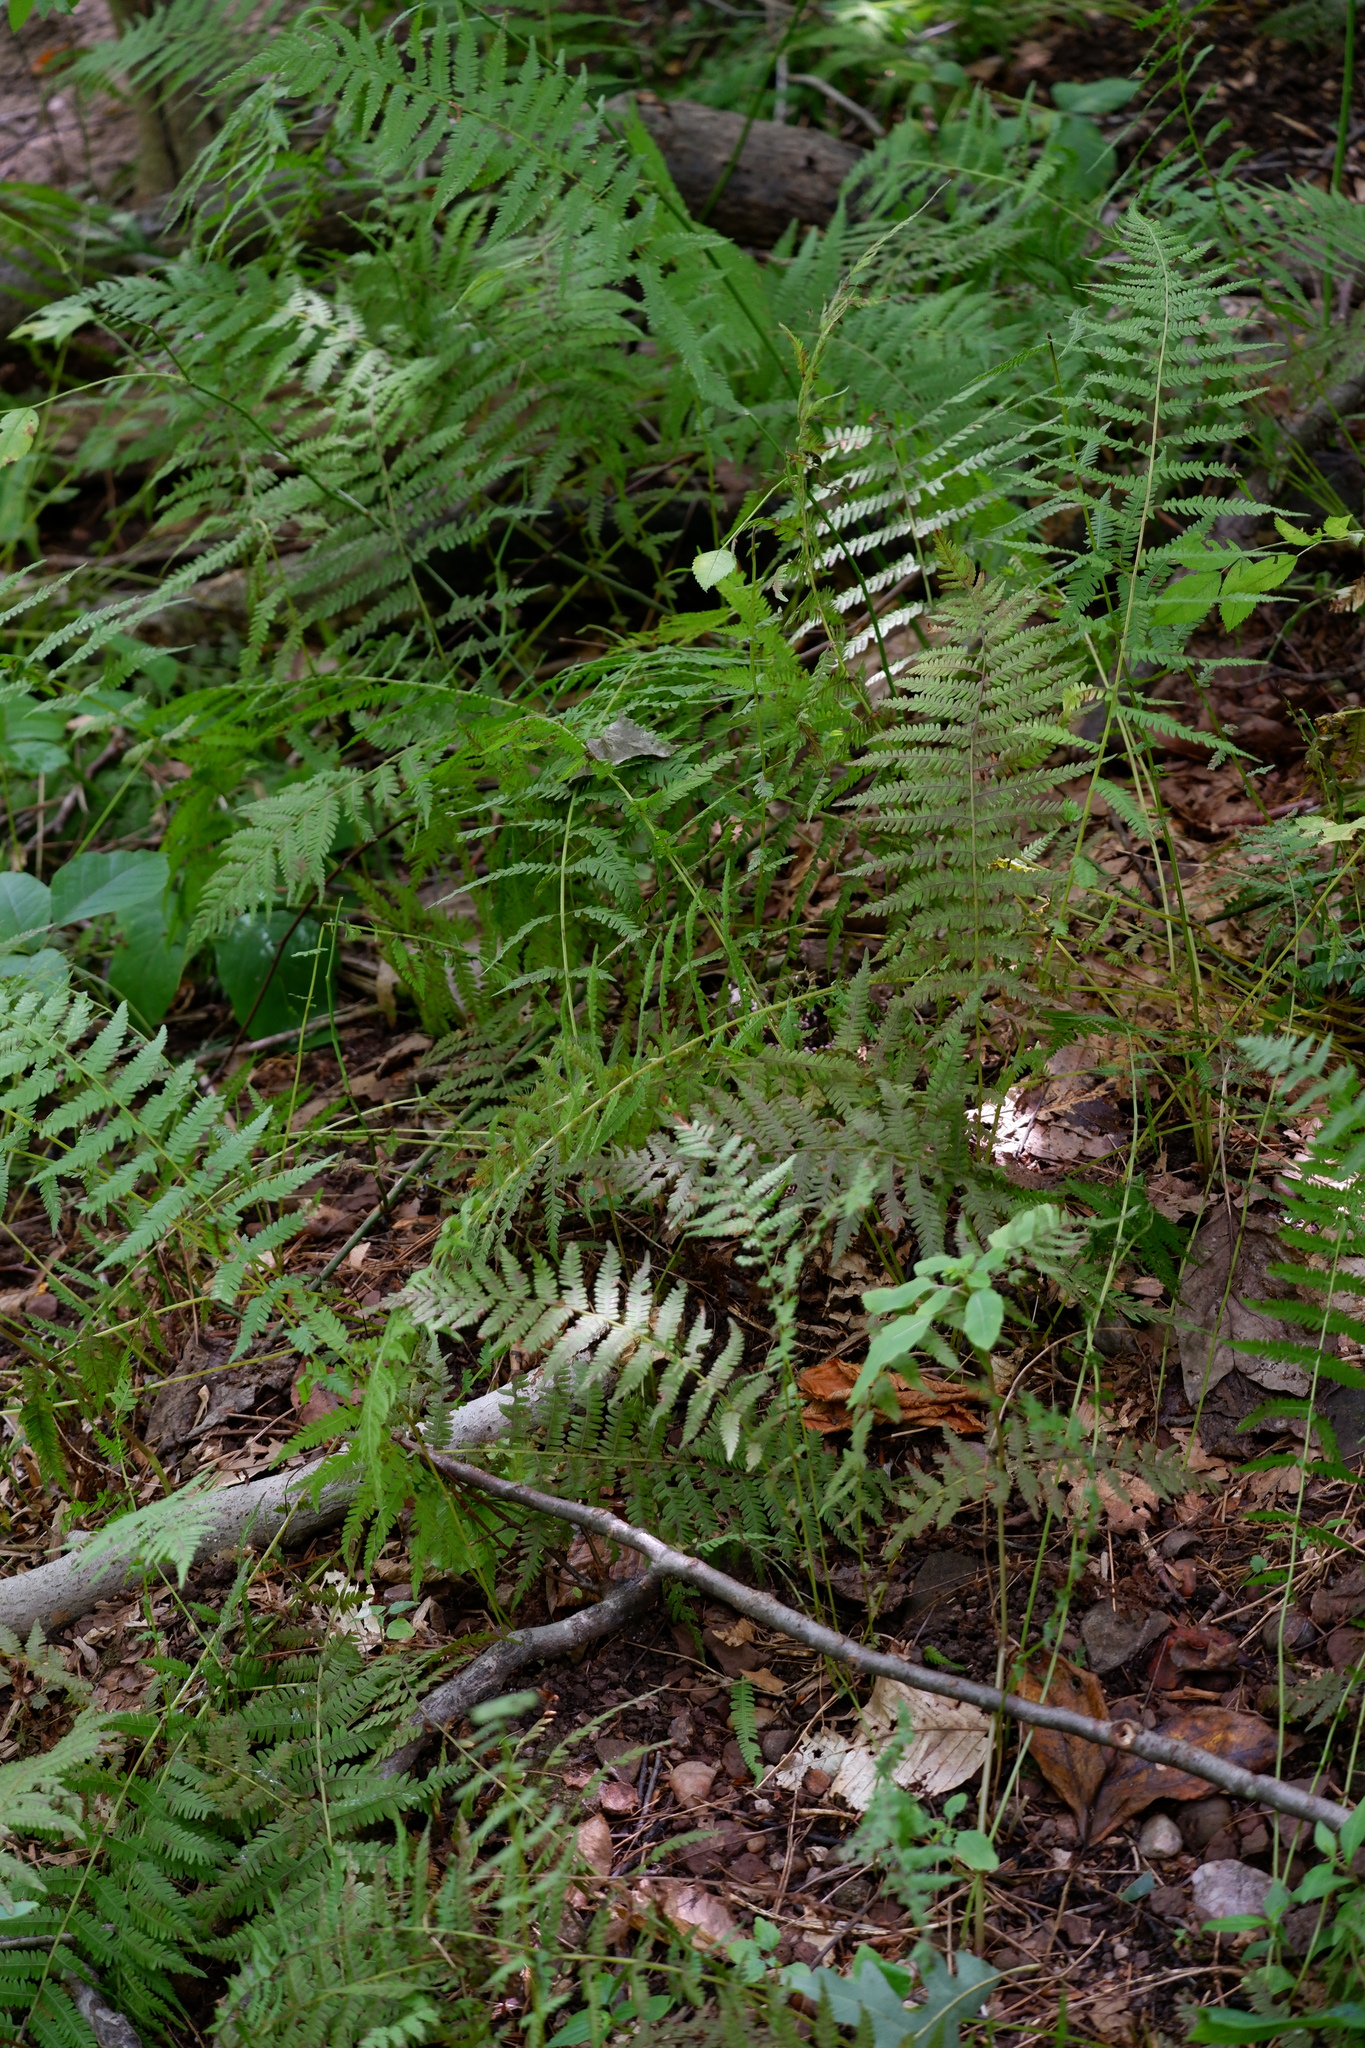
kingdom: Plantae
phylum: Tracheophyta
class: Polypodiopsida
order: Polypodiales
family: Thelypteridaceae
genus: Amauropelta
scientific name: Amauropelta noveboracensis
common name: New york fern
